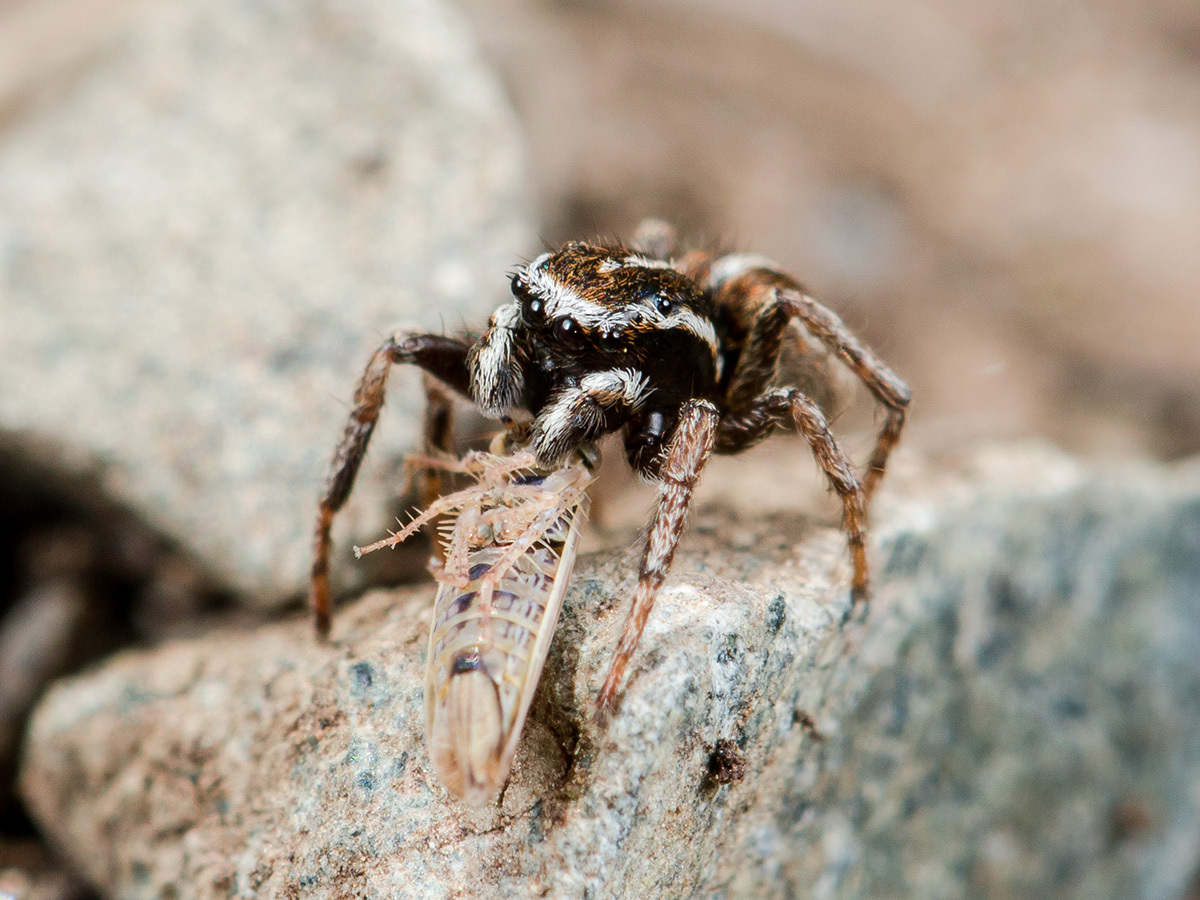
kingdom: Animalia
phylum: Arthropoda
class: Arachnida
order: Araneae
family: Salticidae
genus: Attulus
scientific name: Attulus talgarensis
